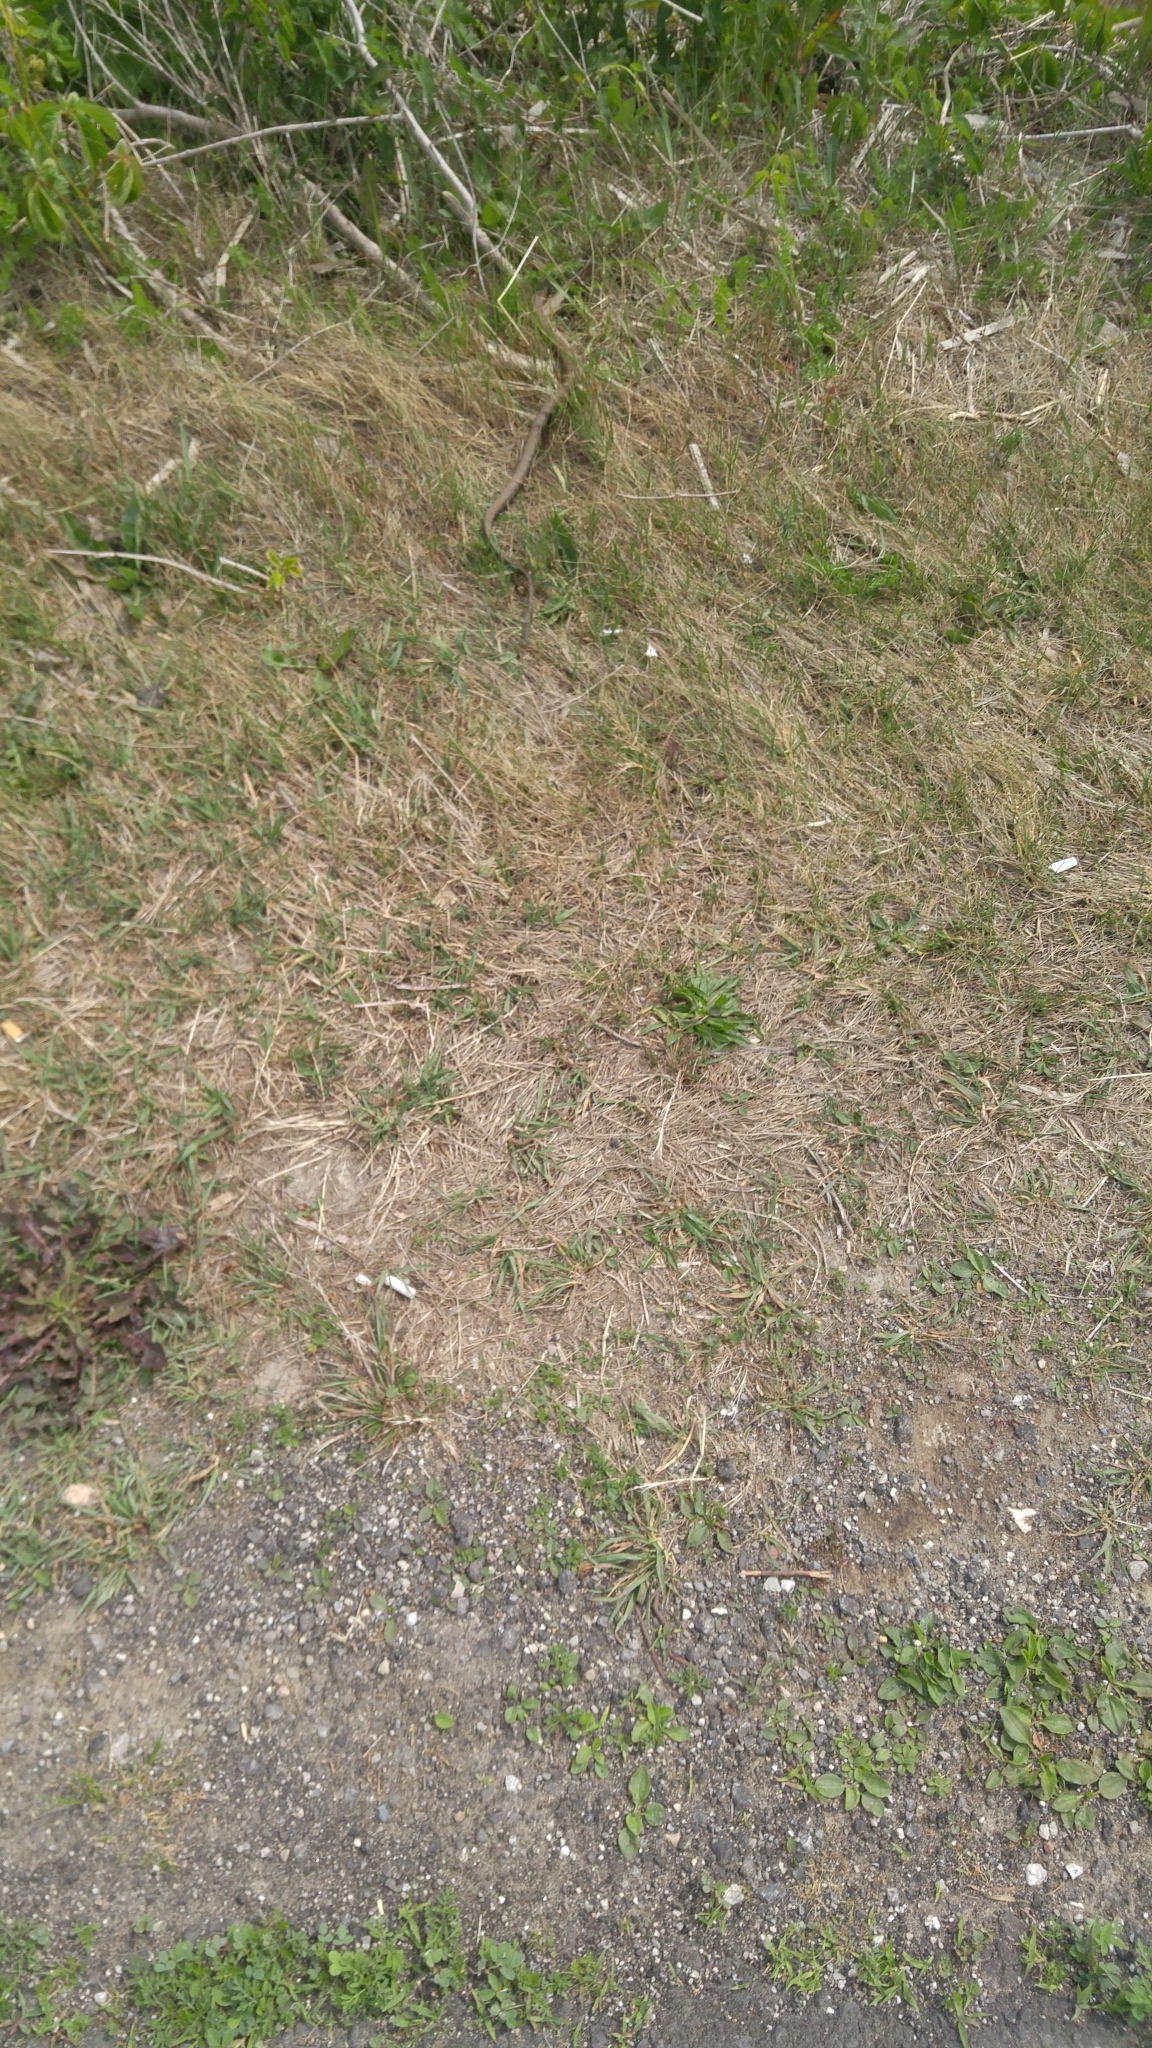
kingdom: Animalia
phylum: Chordata
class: Squamata
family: Colubridae
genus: Nerodia
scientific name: Nerodia sipedon
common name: Northern water snake
